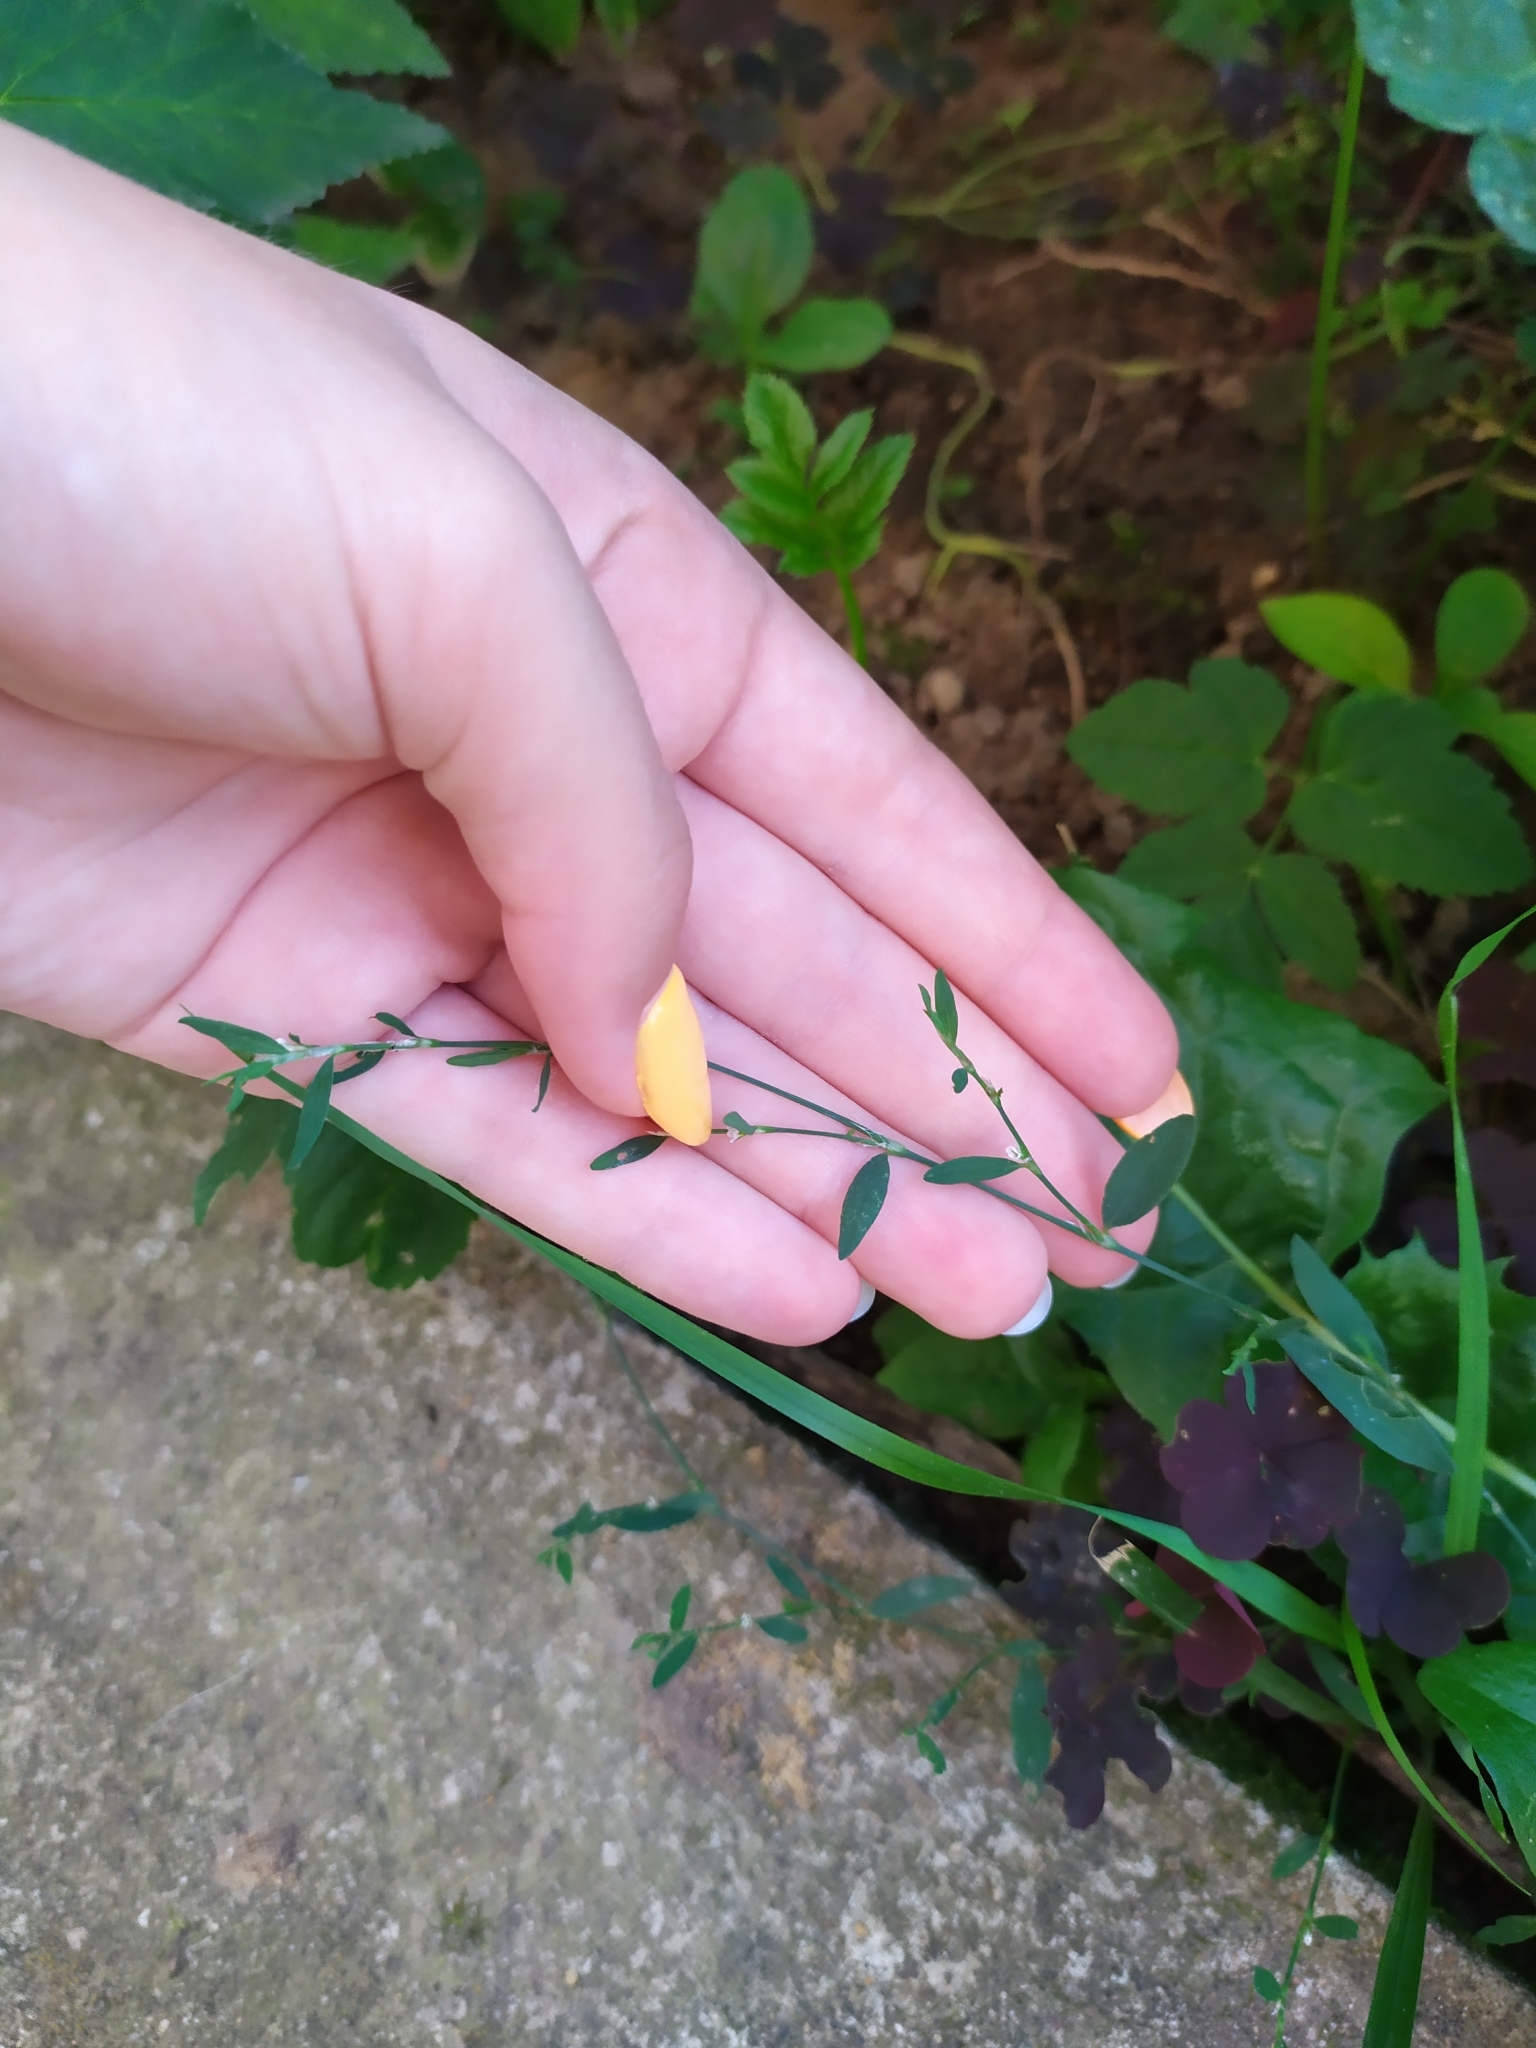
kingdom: Plantae
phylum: Tracheophyta
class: Magnoliopsida
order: Caryophyllales
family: Polygonaceae
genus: Polygonum
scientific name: Polygonum
